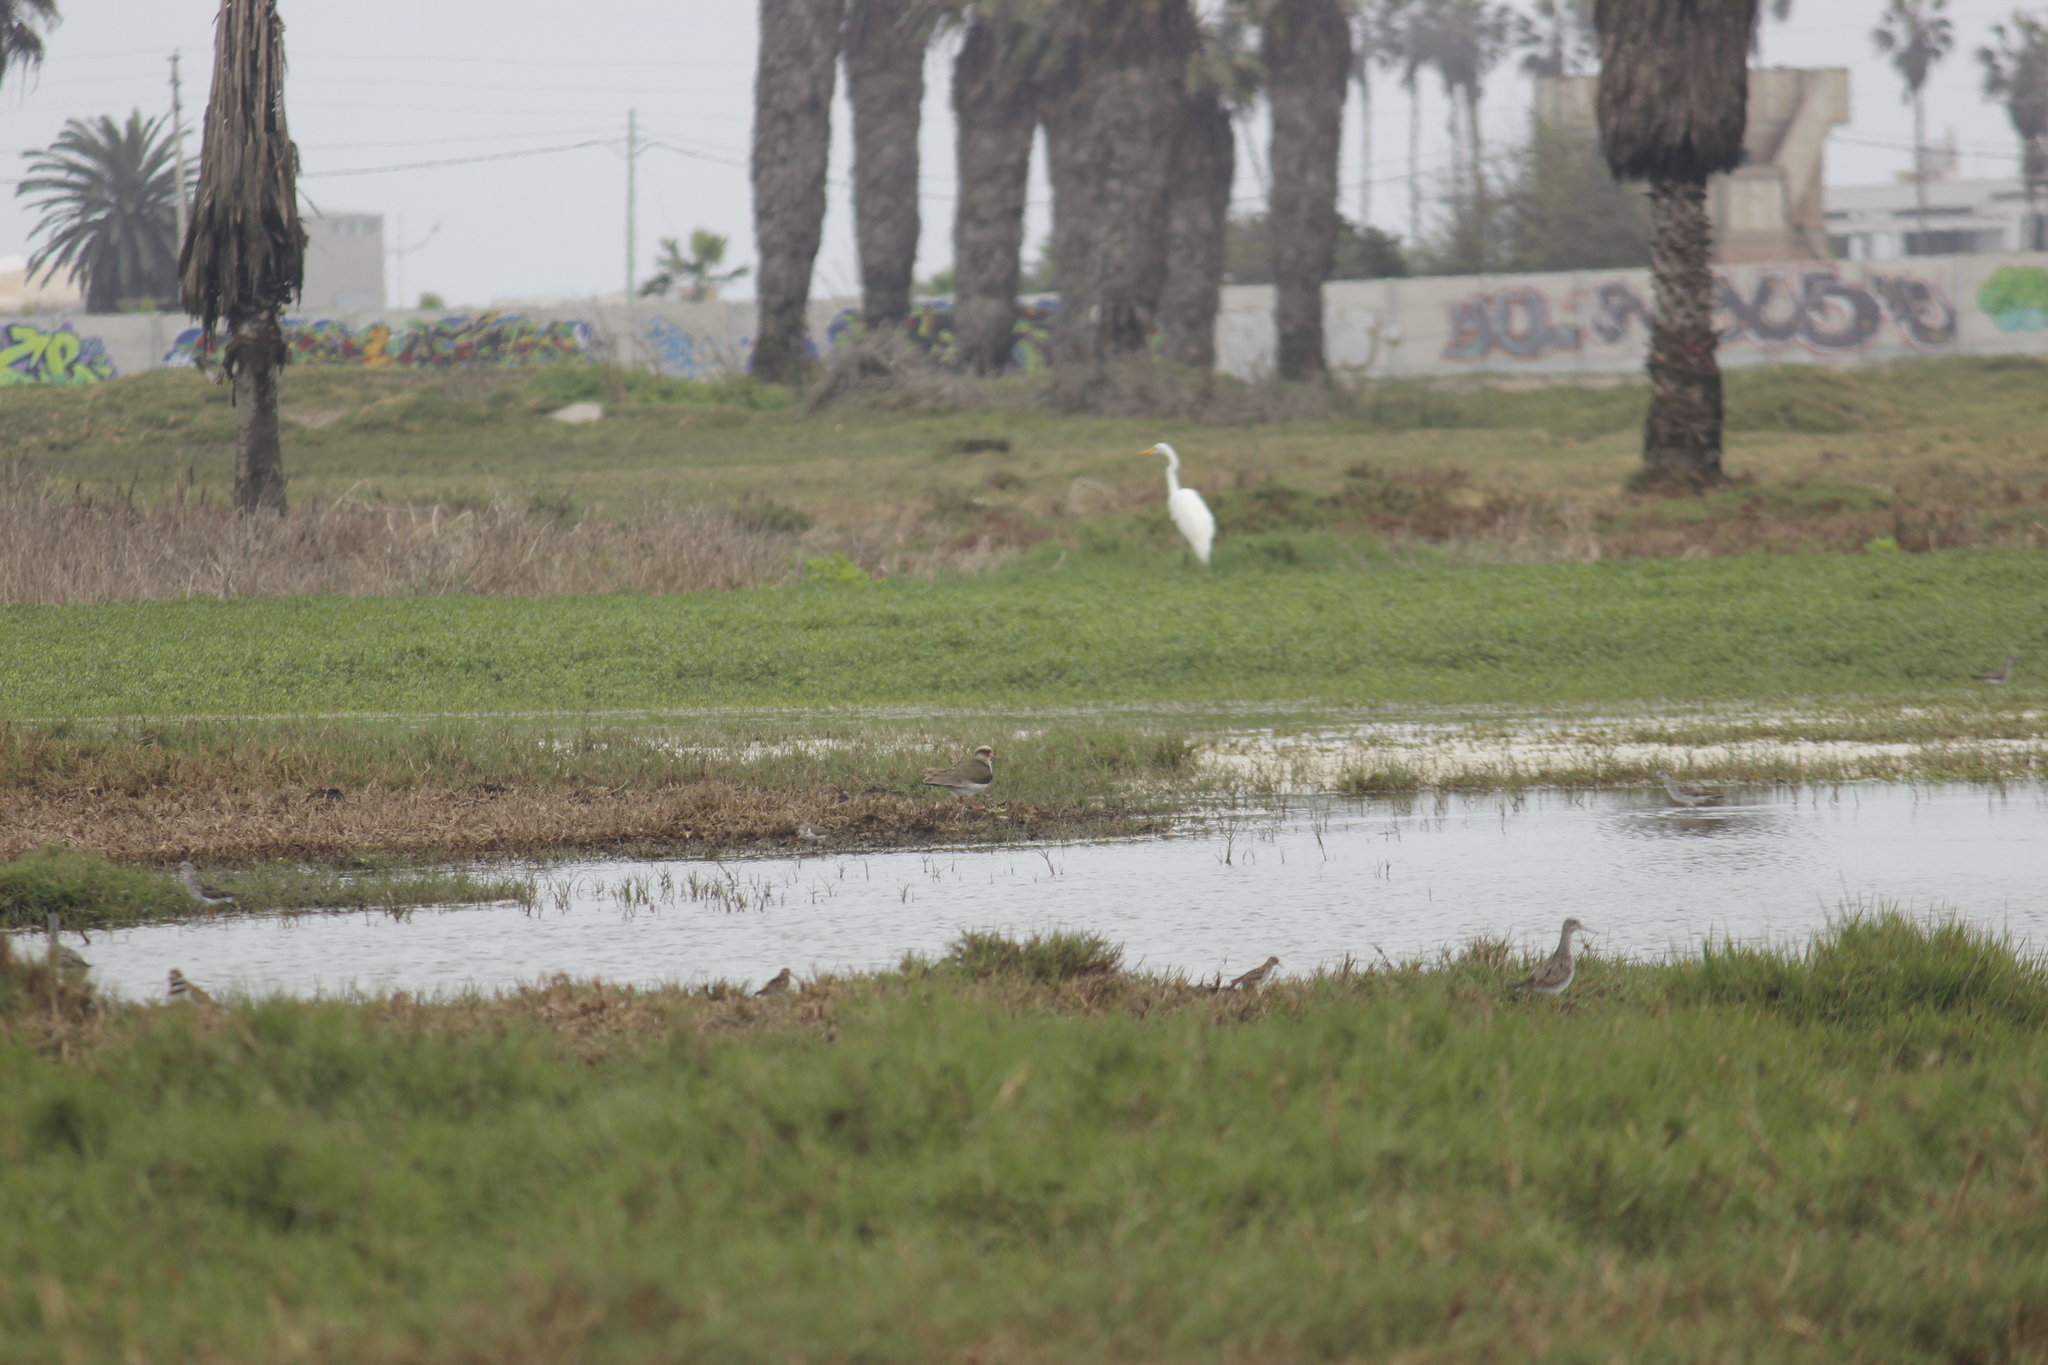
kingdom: Animalia
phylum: Chordata
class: Aves
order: Pelecaniformes
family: Ardeidae
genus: Ardea
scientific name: Ardea alba
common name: Great egret
